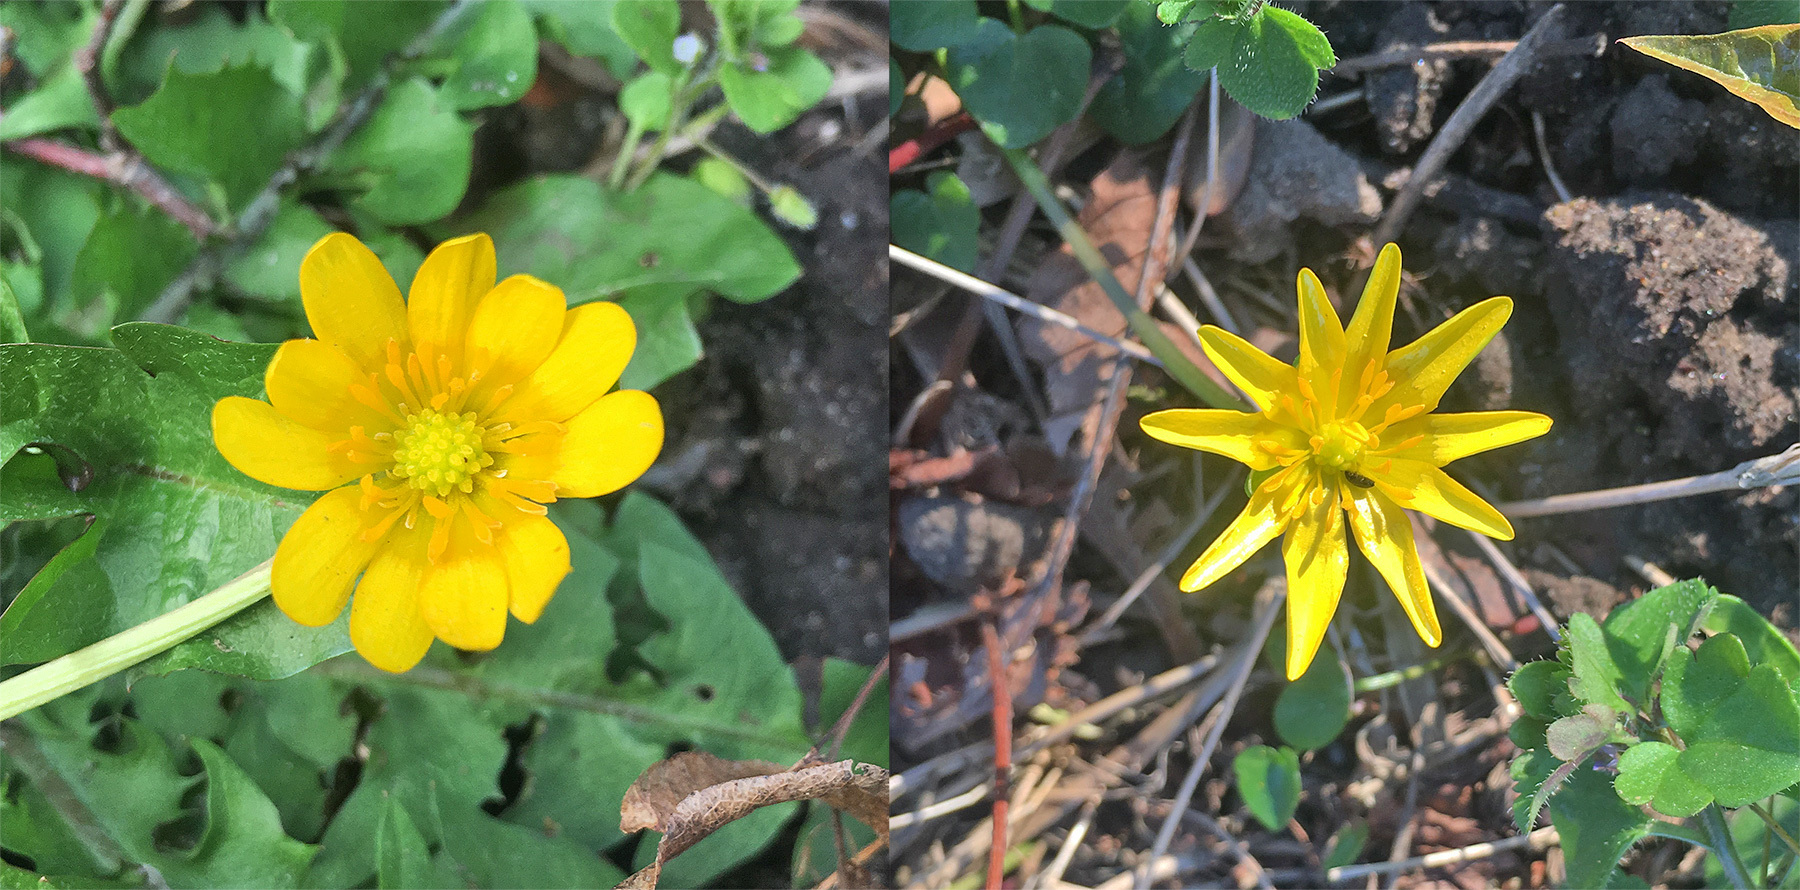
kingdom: Plantae
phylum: Tracheophyta
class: Magnoliopsida
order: Ranunculales
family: Ranunculaceae
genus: Ficaria
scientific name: Ficaria verna
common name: Lesser celandine
